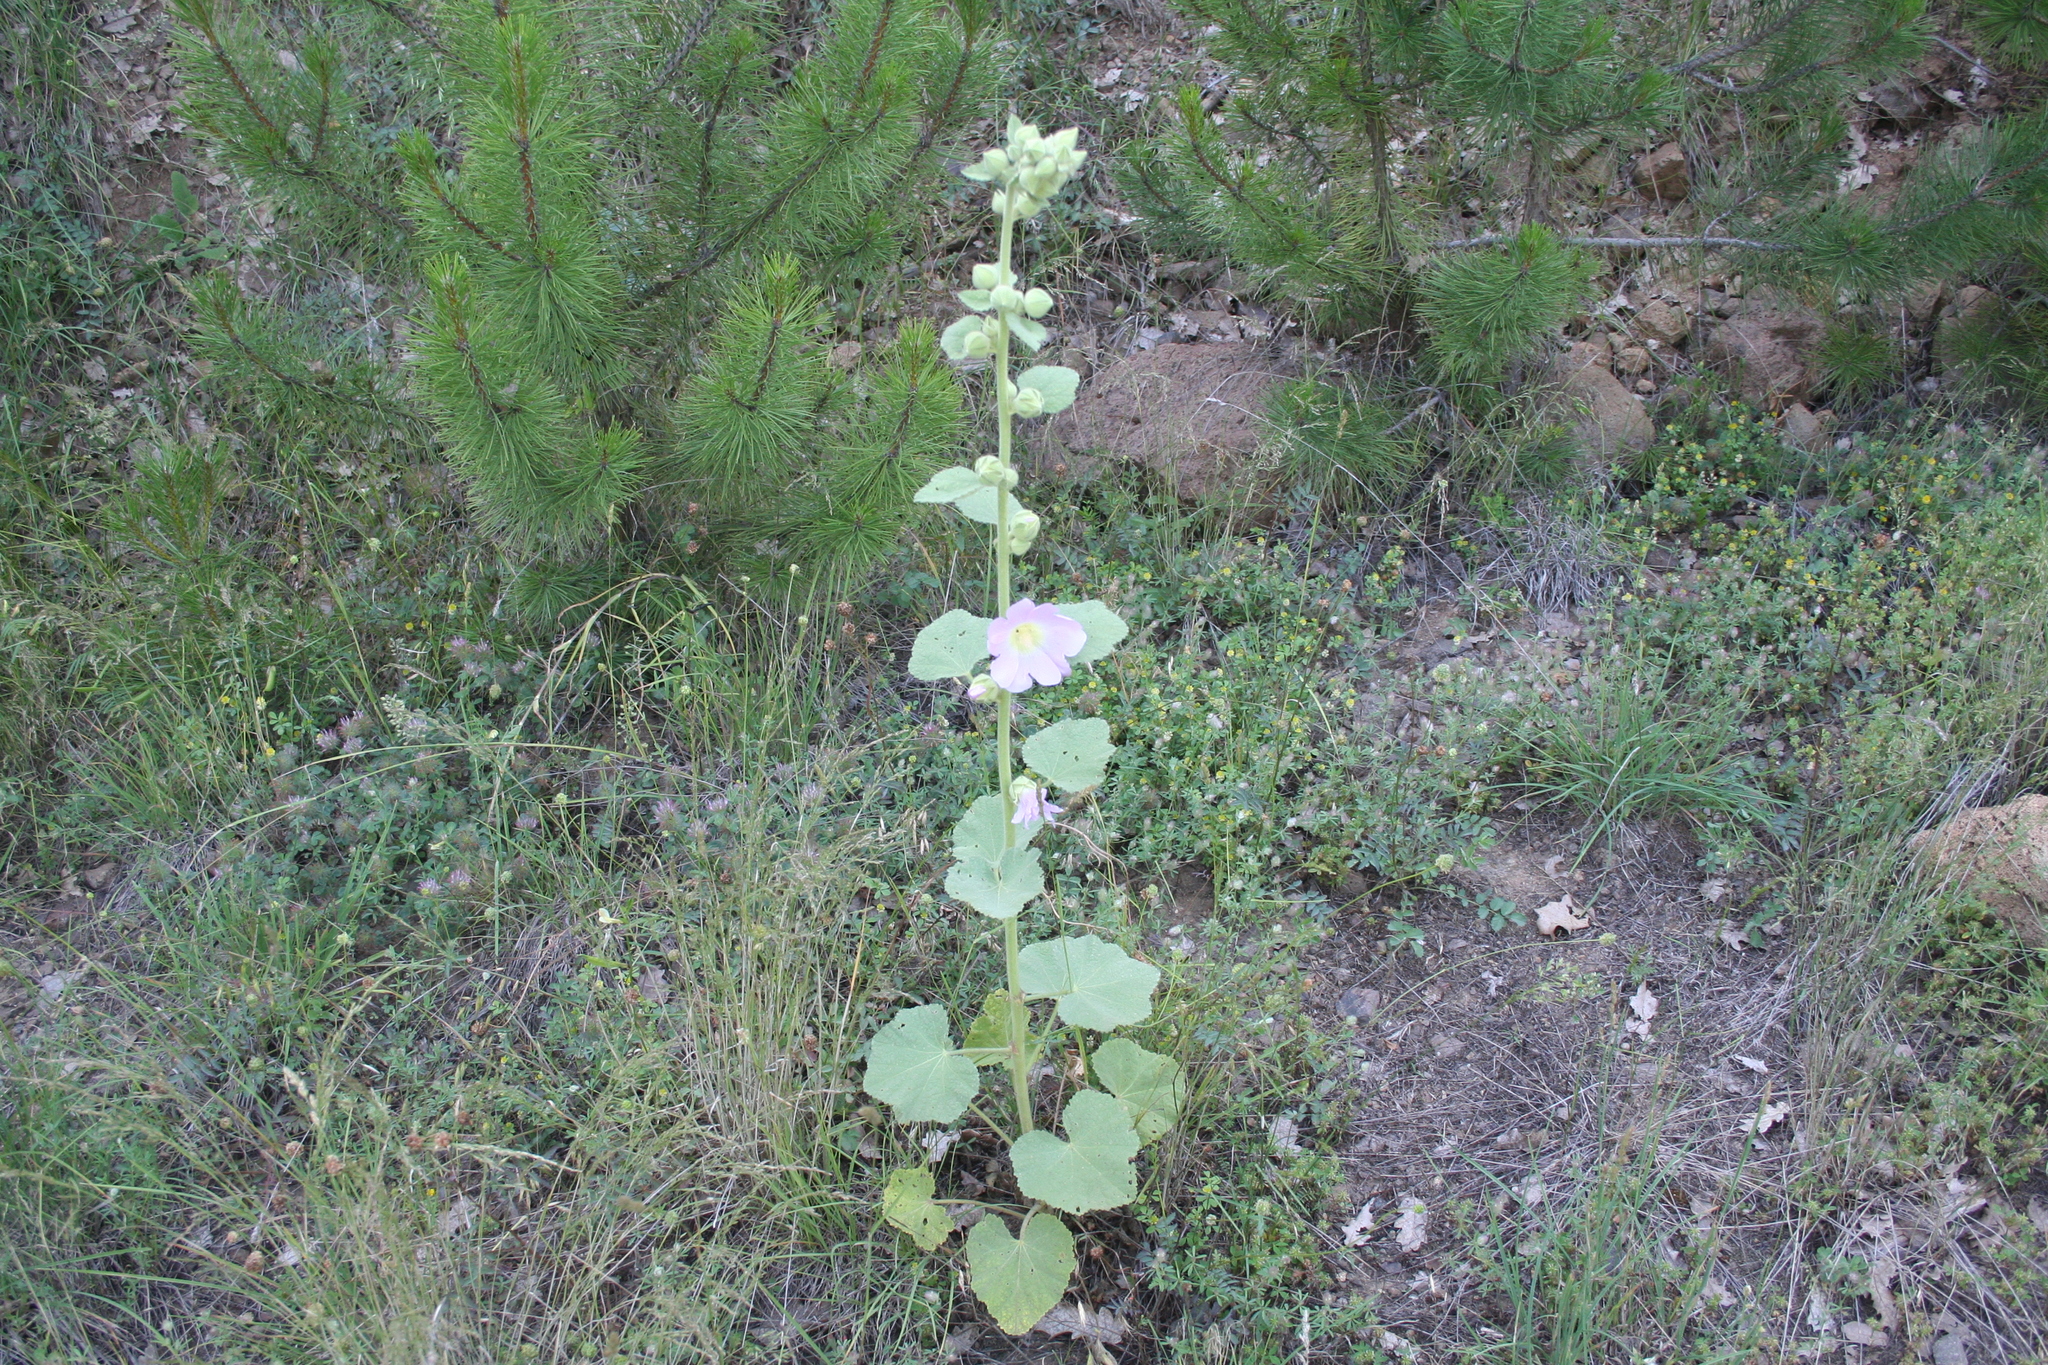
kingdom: Plantae
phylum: Tracheophyta
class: Magnoliopsida
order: Malvales
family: Malvaceae
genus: Alcea
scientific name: Alcea rosea
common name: Hollyhock
